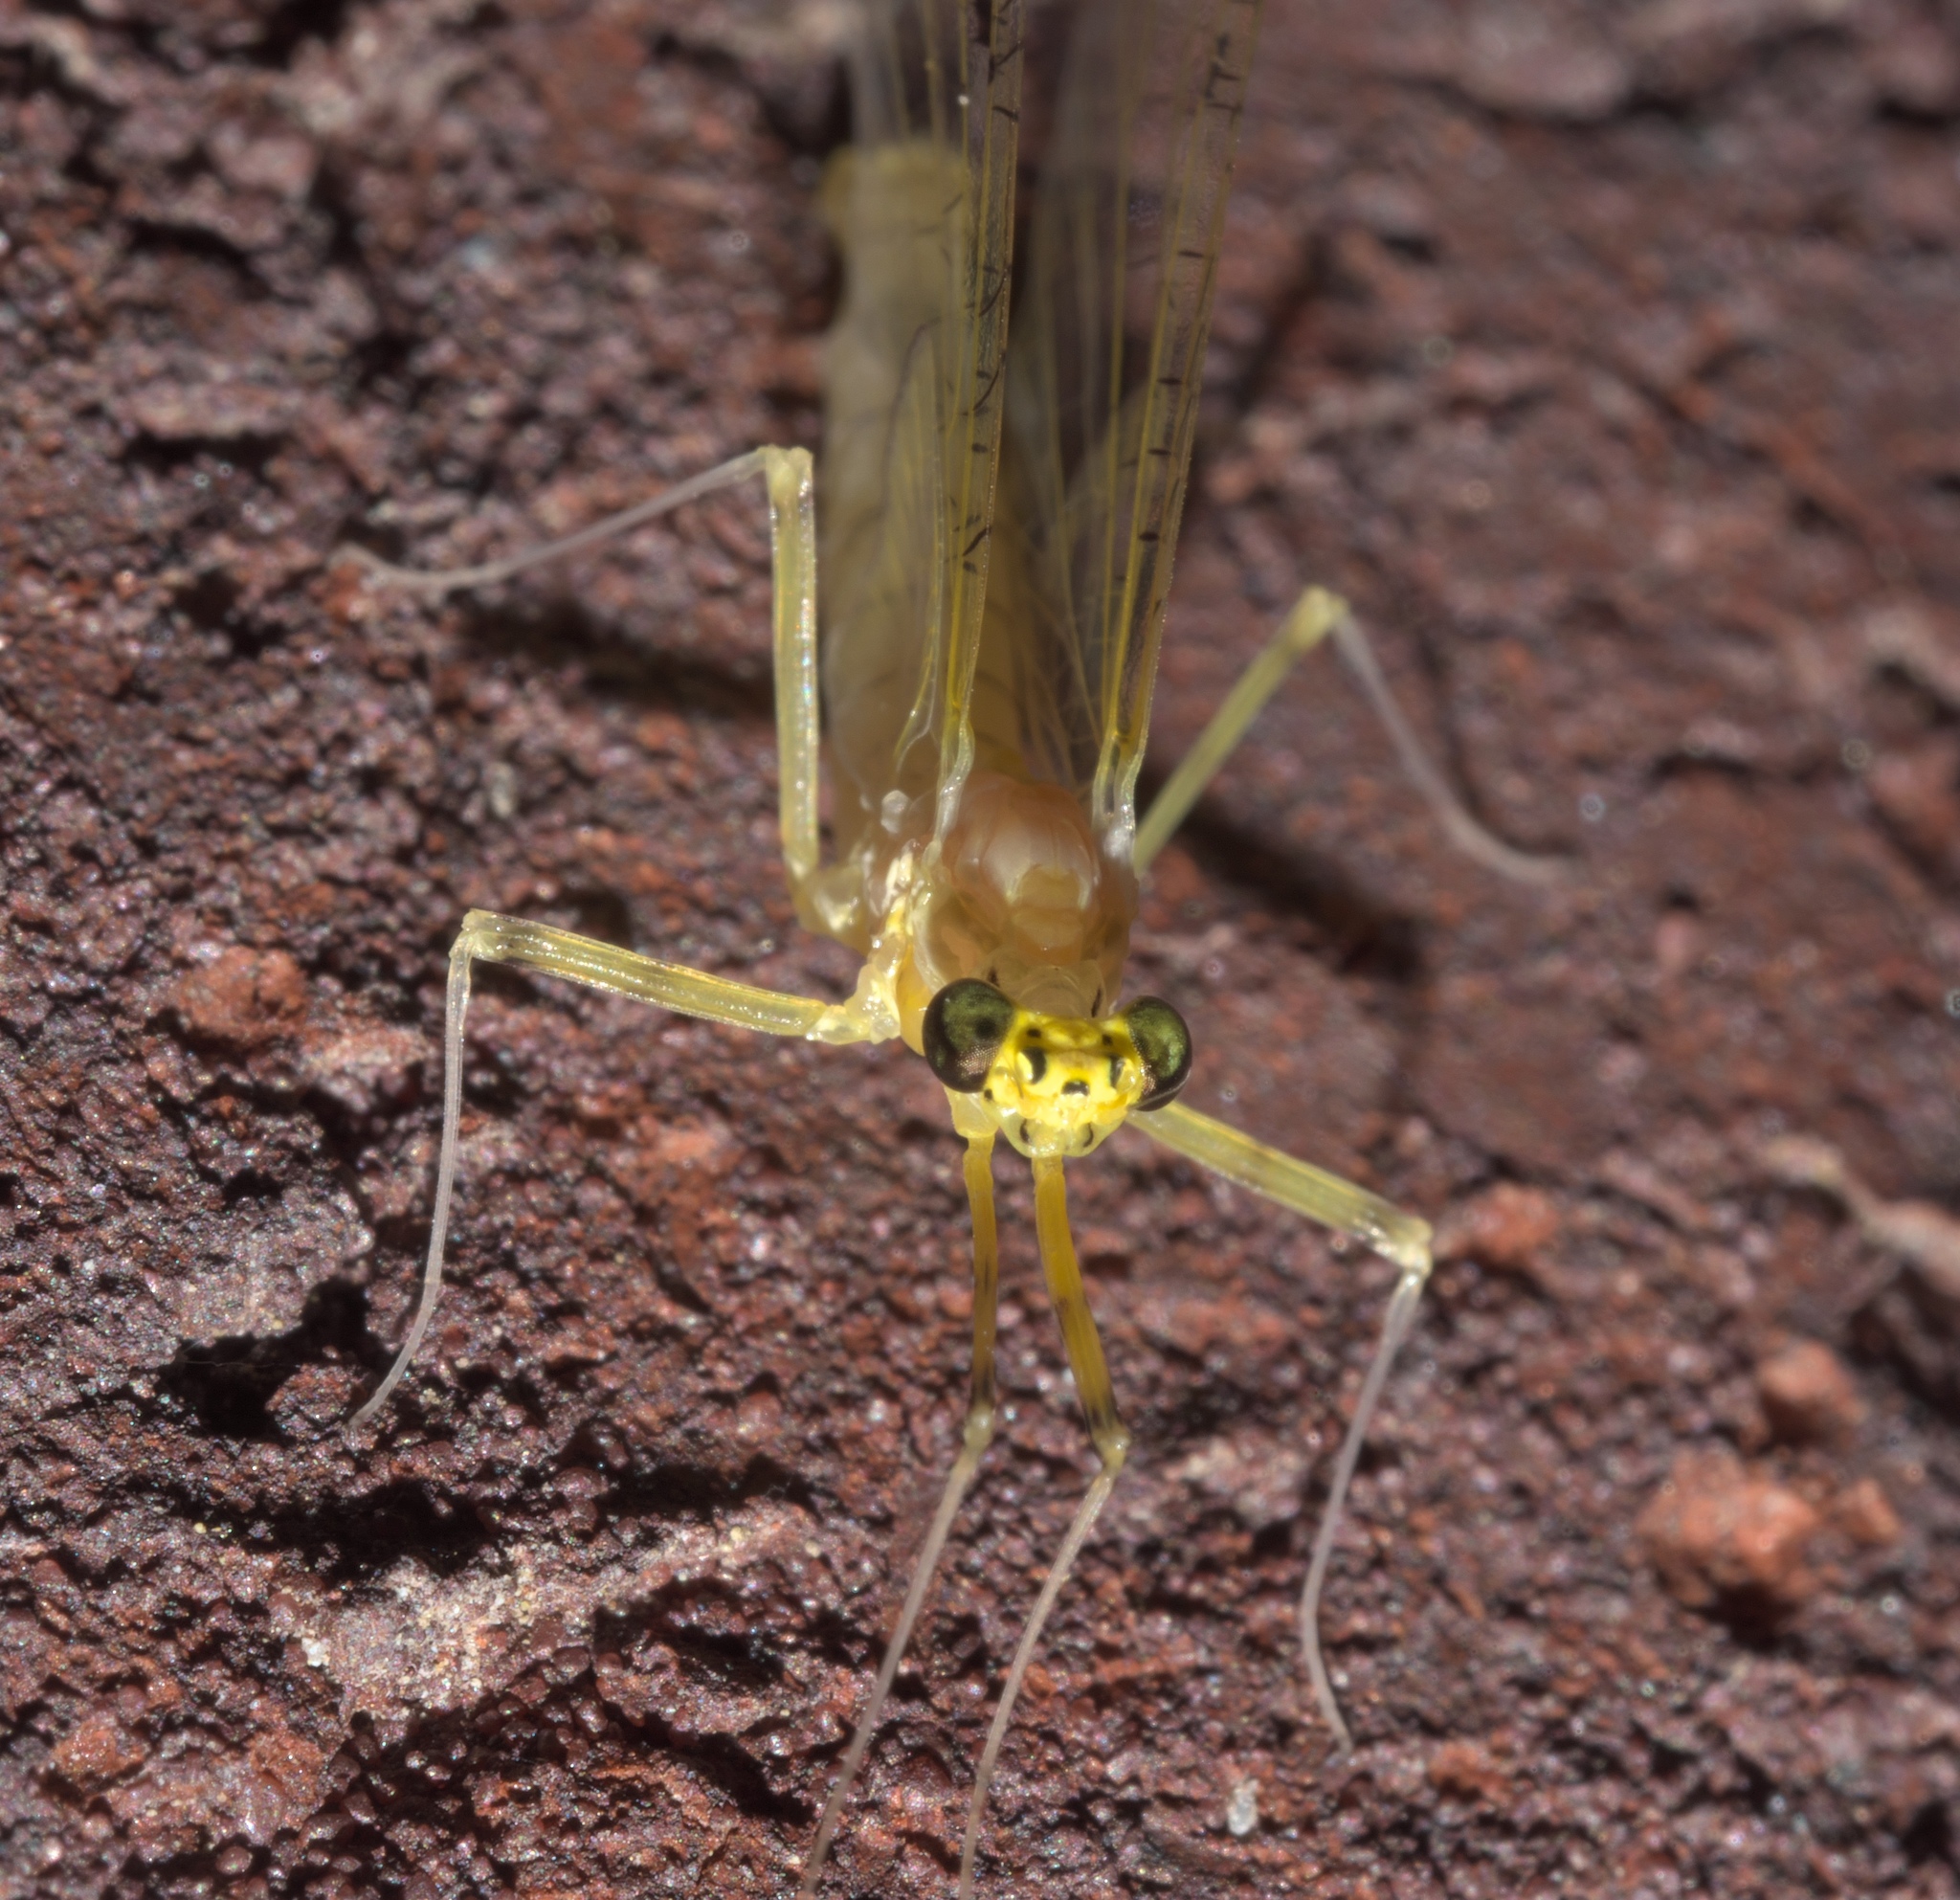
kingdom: Animalia
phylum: Arthropoda
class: Insecta
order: Ephemeroptera
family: Heptageniidae
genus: Stenacron
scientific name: Stenacron interpunctatum
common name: Orange cahill
